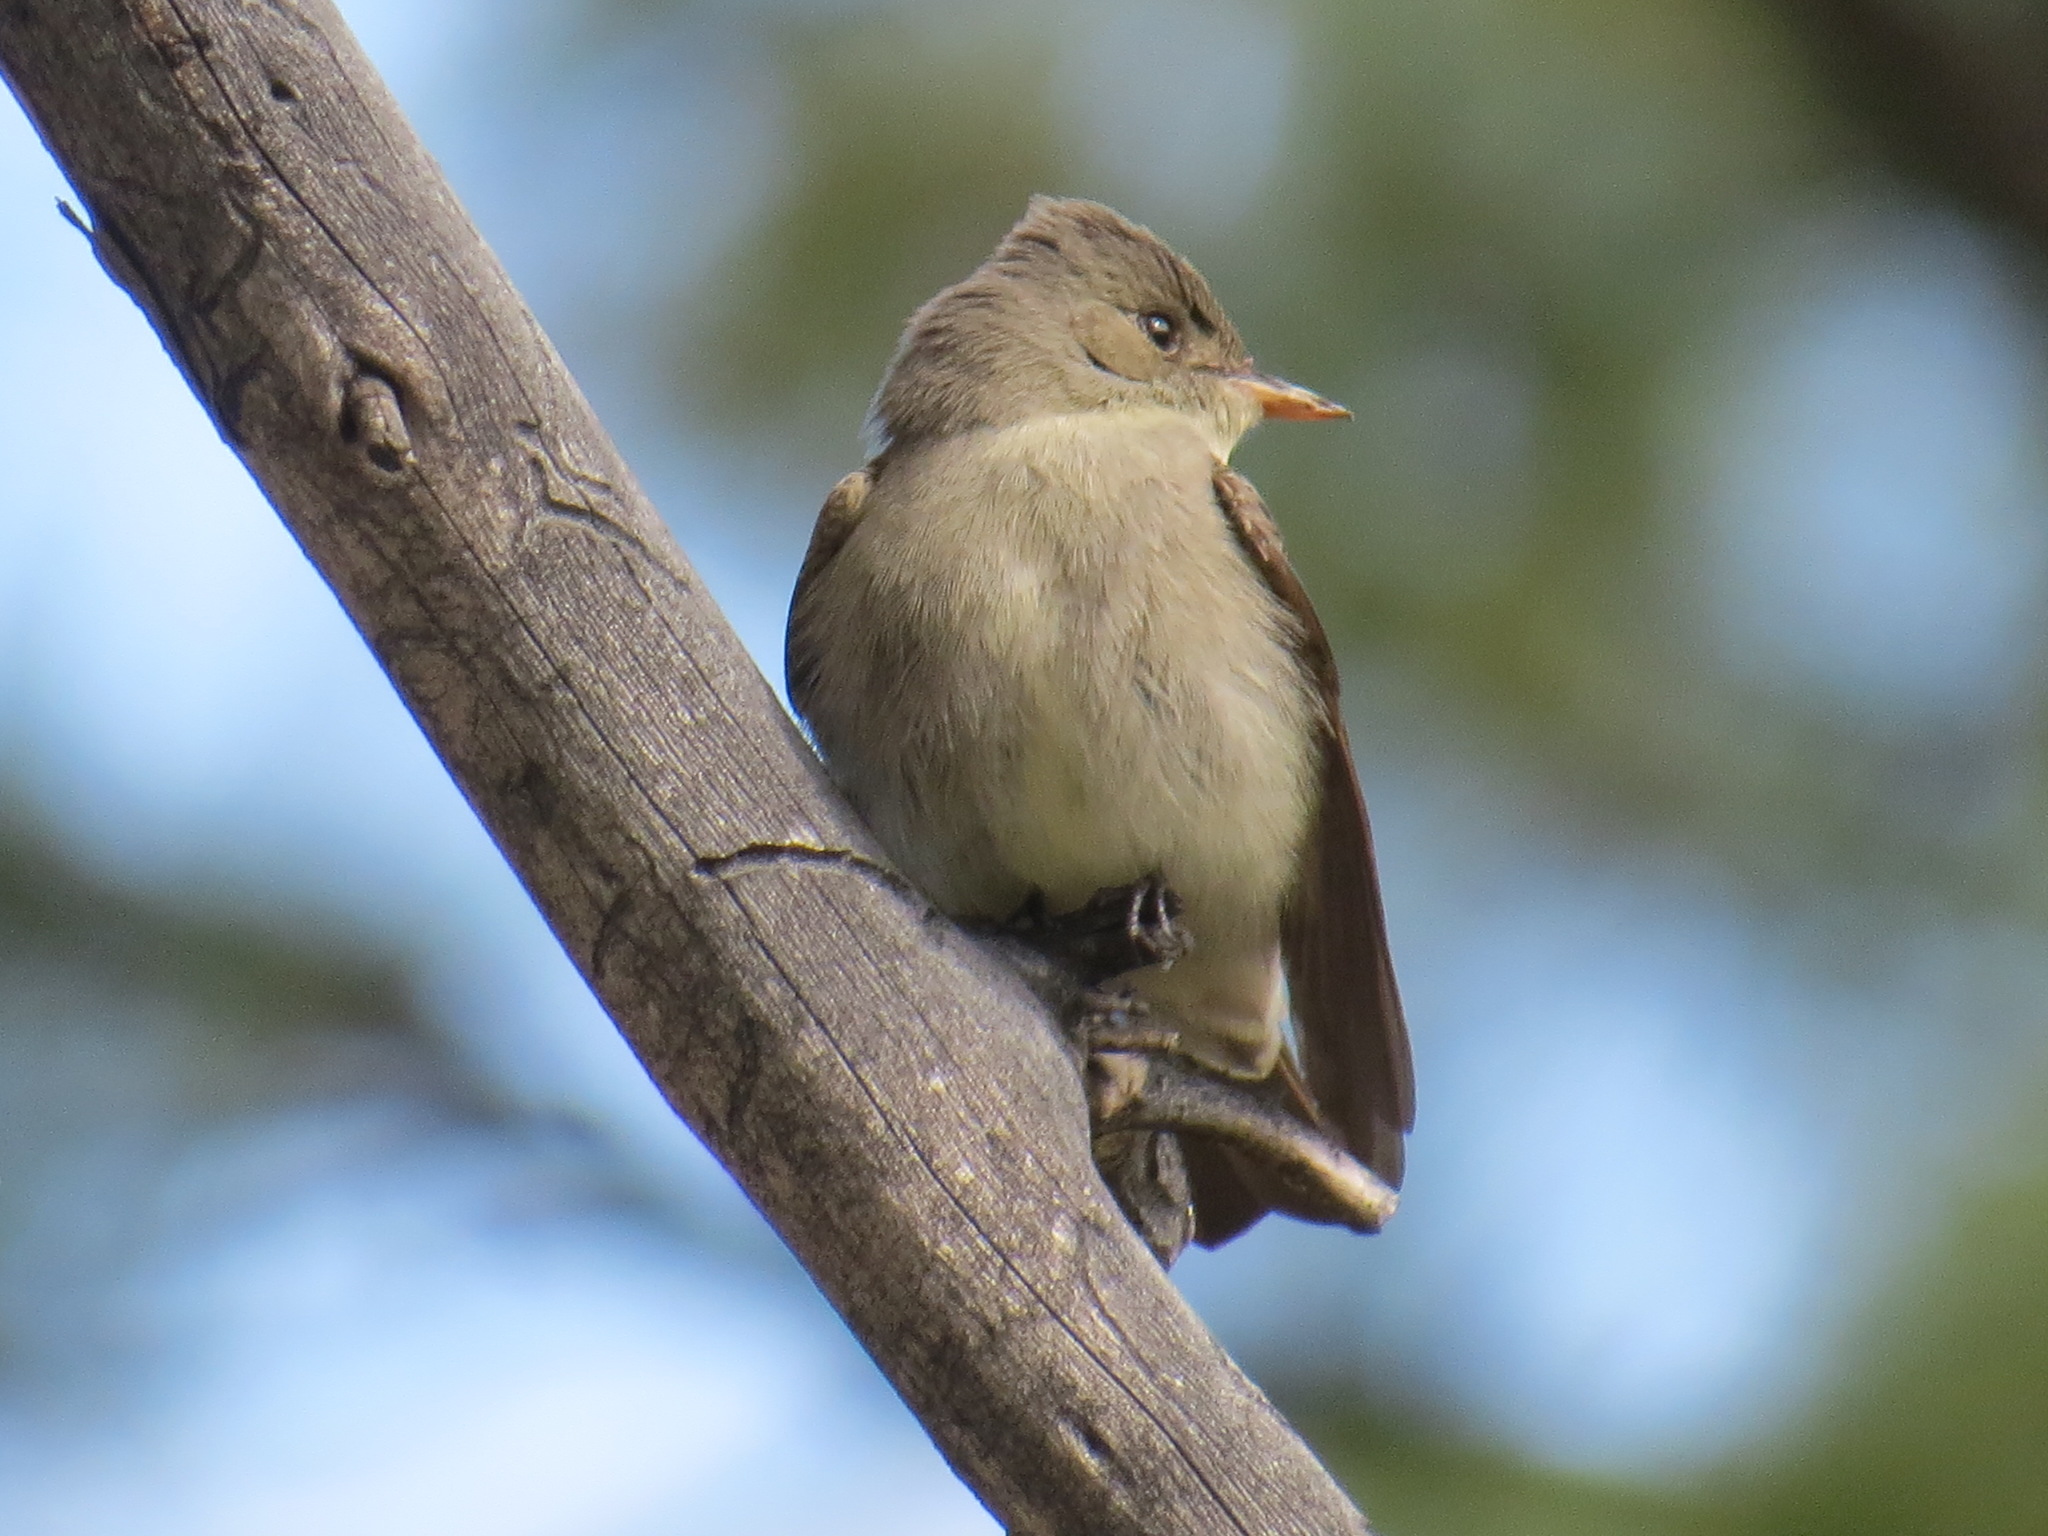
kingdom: Animalia
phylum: Chordata
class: Aves
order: Passeriformes
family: Tyrannidae
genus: Contopus
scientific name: Contopus sordidulus
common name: Western wood-pewee
